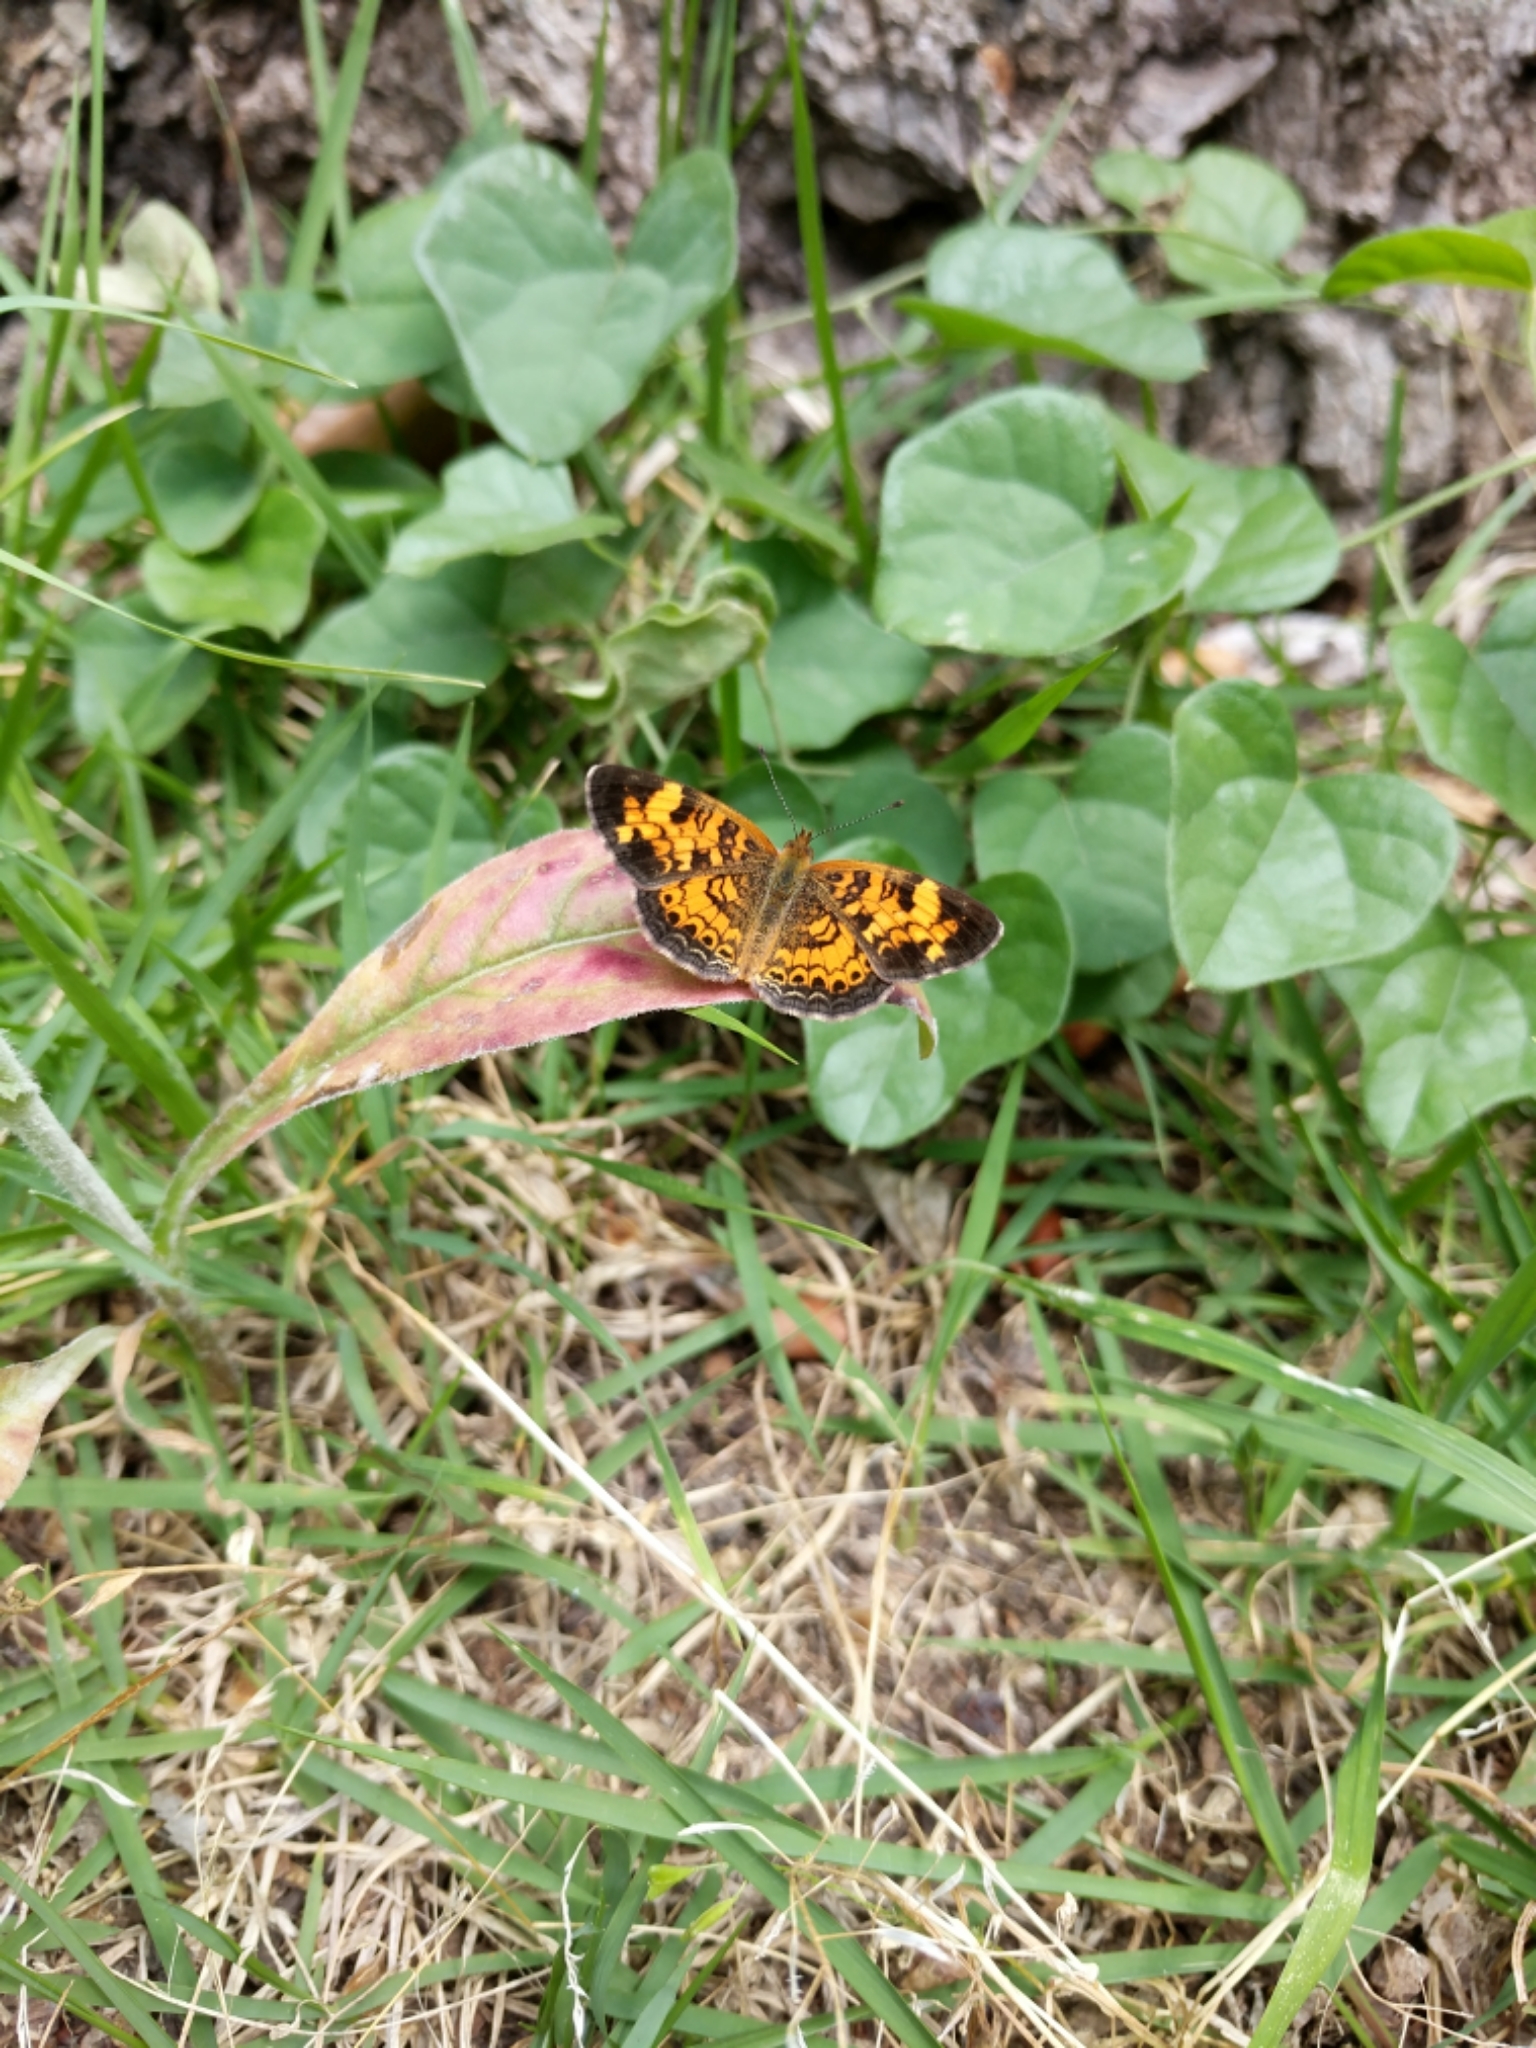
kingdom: Animalia
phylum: Arthropoda
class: Insecta
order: Lepidoptera
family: Nymphalidae
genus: Phyciodes
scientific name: Phyciodes tharos
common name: Pearl crescent
